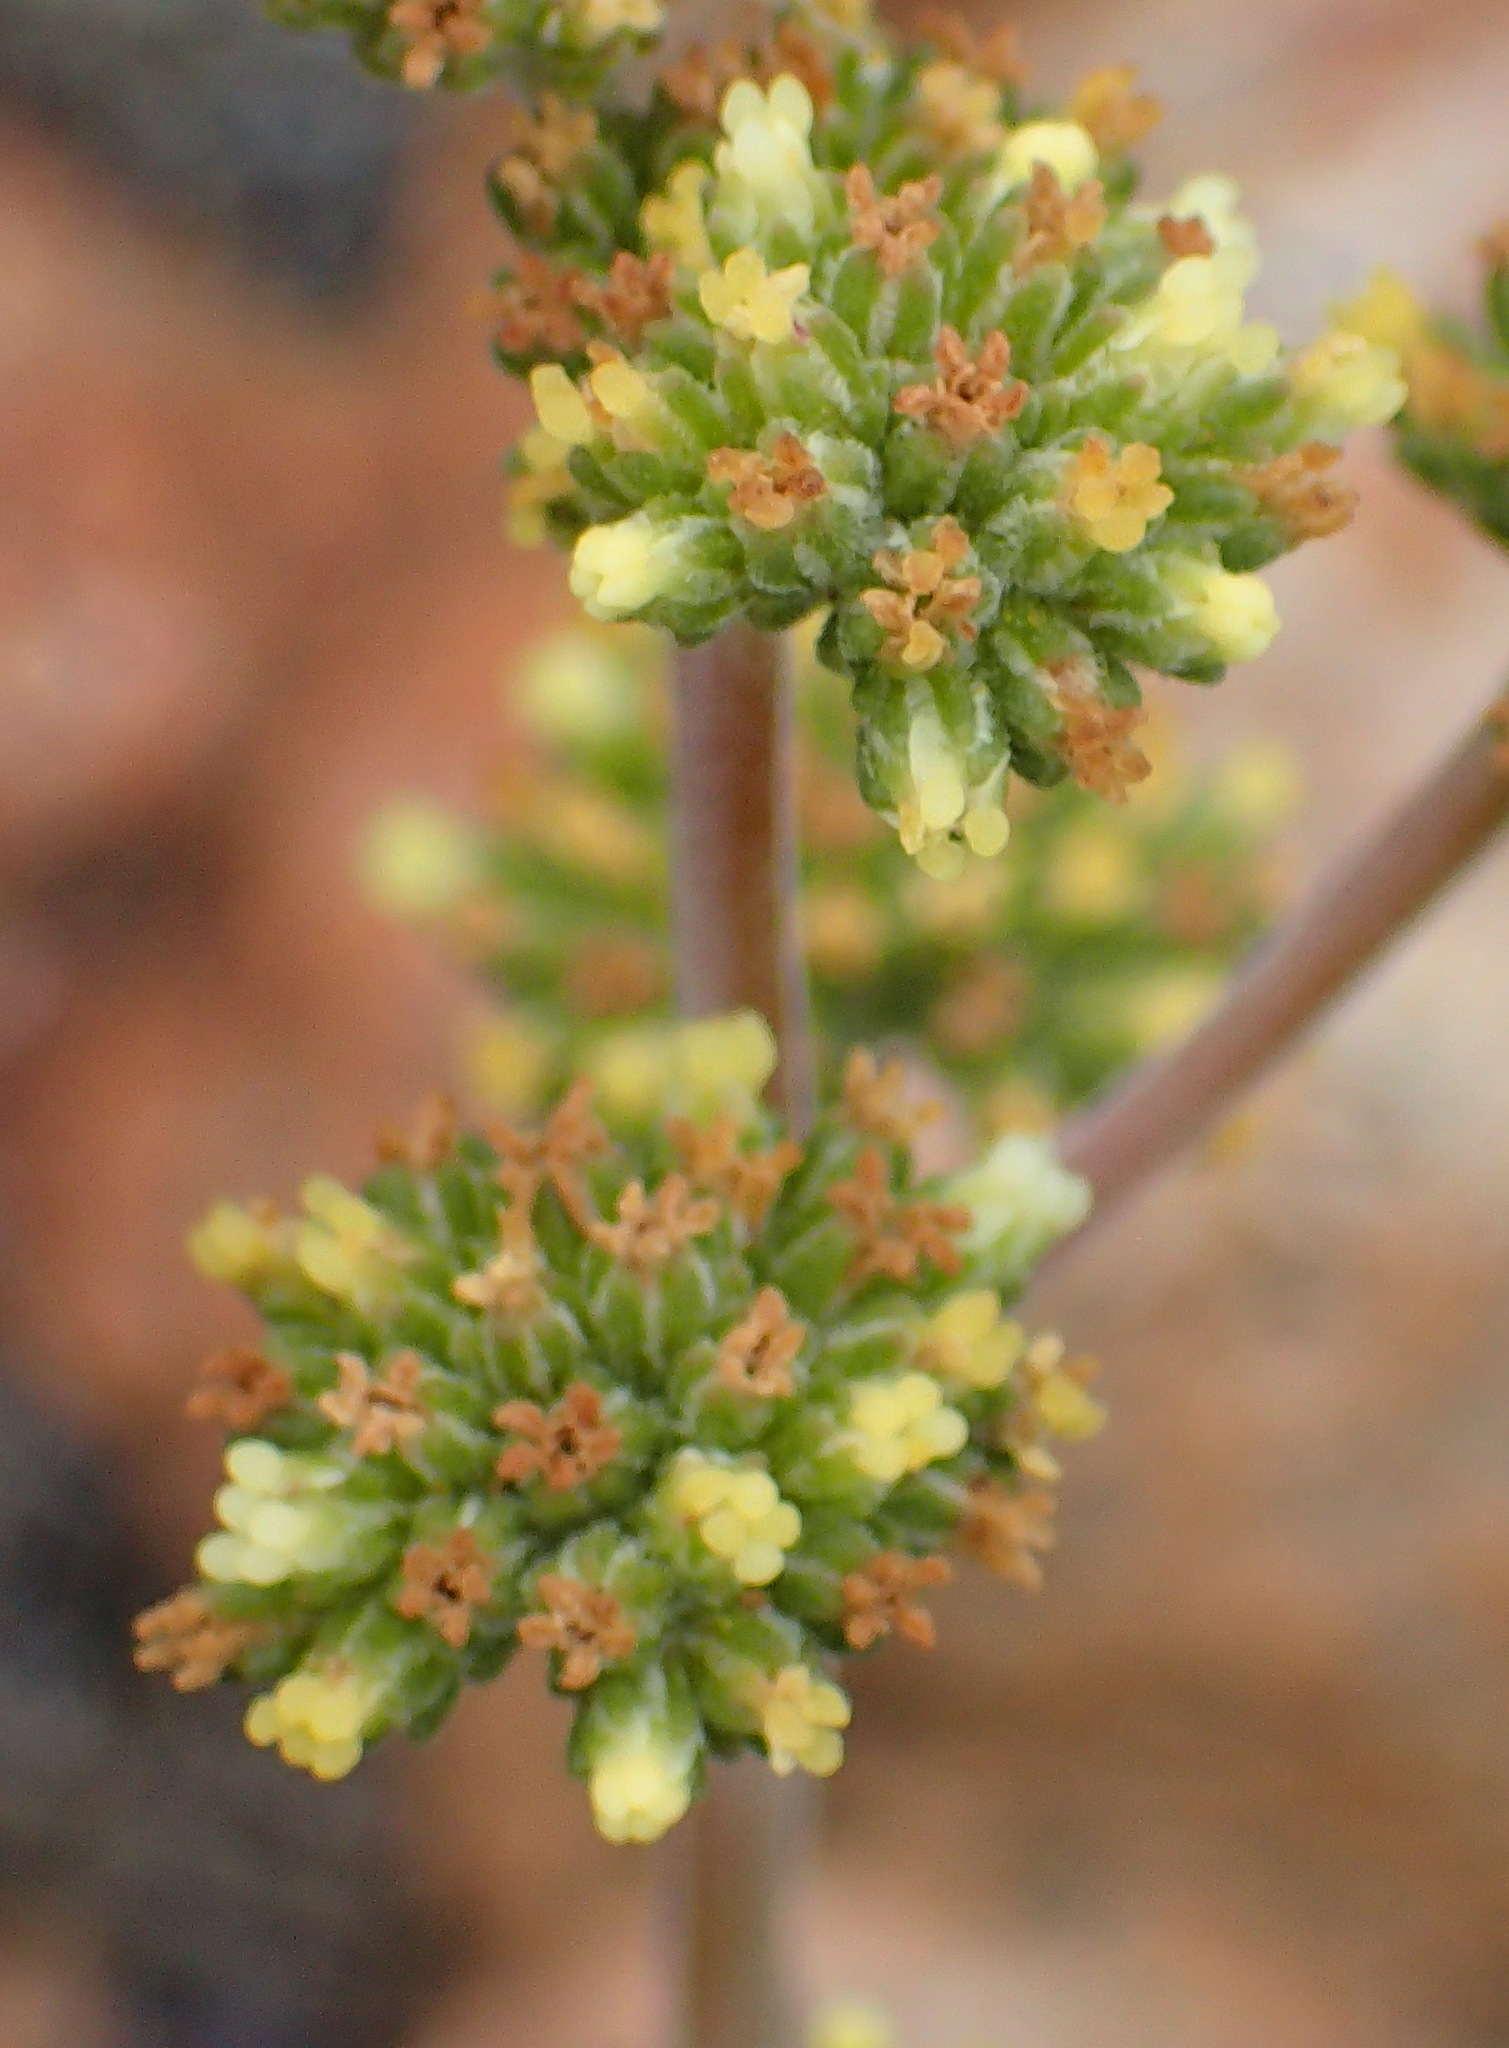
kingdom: Plantae
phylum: Tracheophyta
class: Magnoliopsida
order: Saxifragales
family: Crassulaceae
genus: Crassula
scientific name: Crassula cotyledonis
